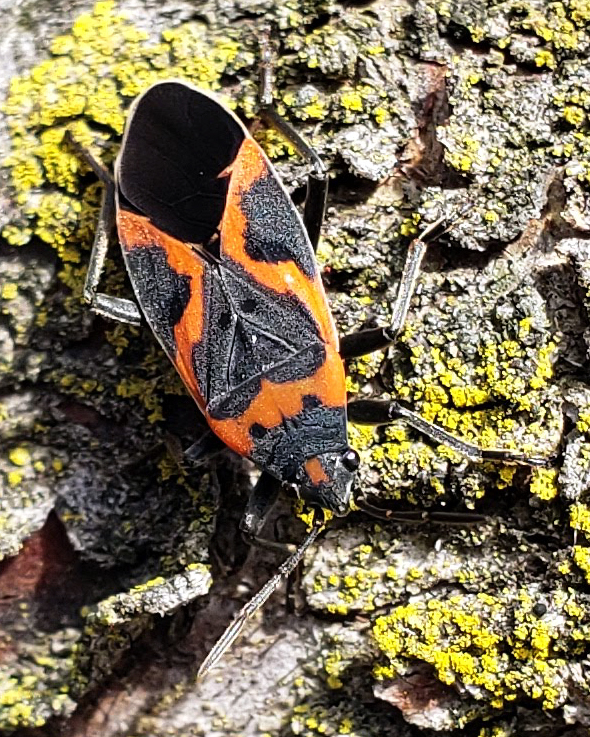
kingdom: Animalia
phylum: Arthropoda
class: Insecta
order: Hemiptera
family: Lygaeidae
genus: Lygaeus
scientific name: Lygaeus kalmii
